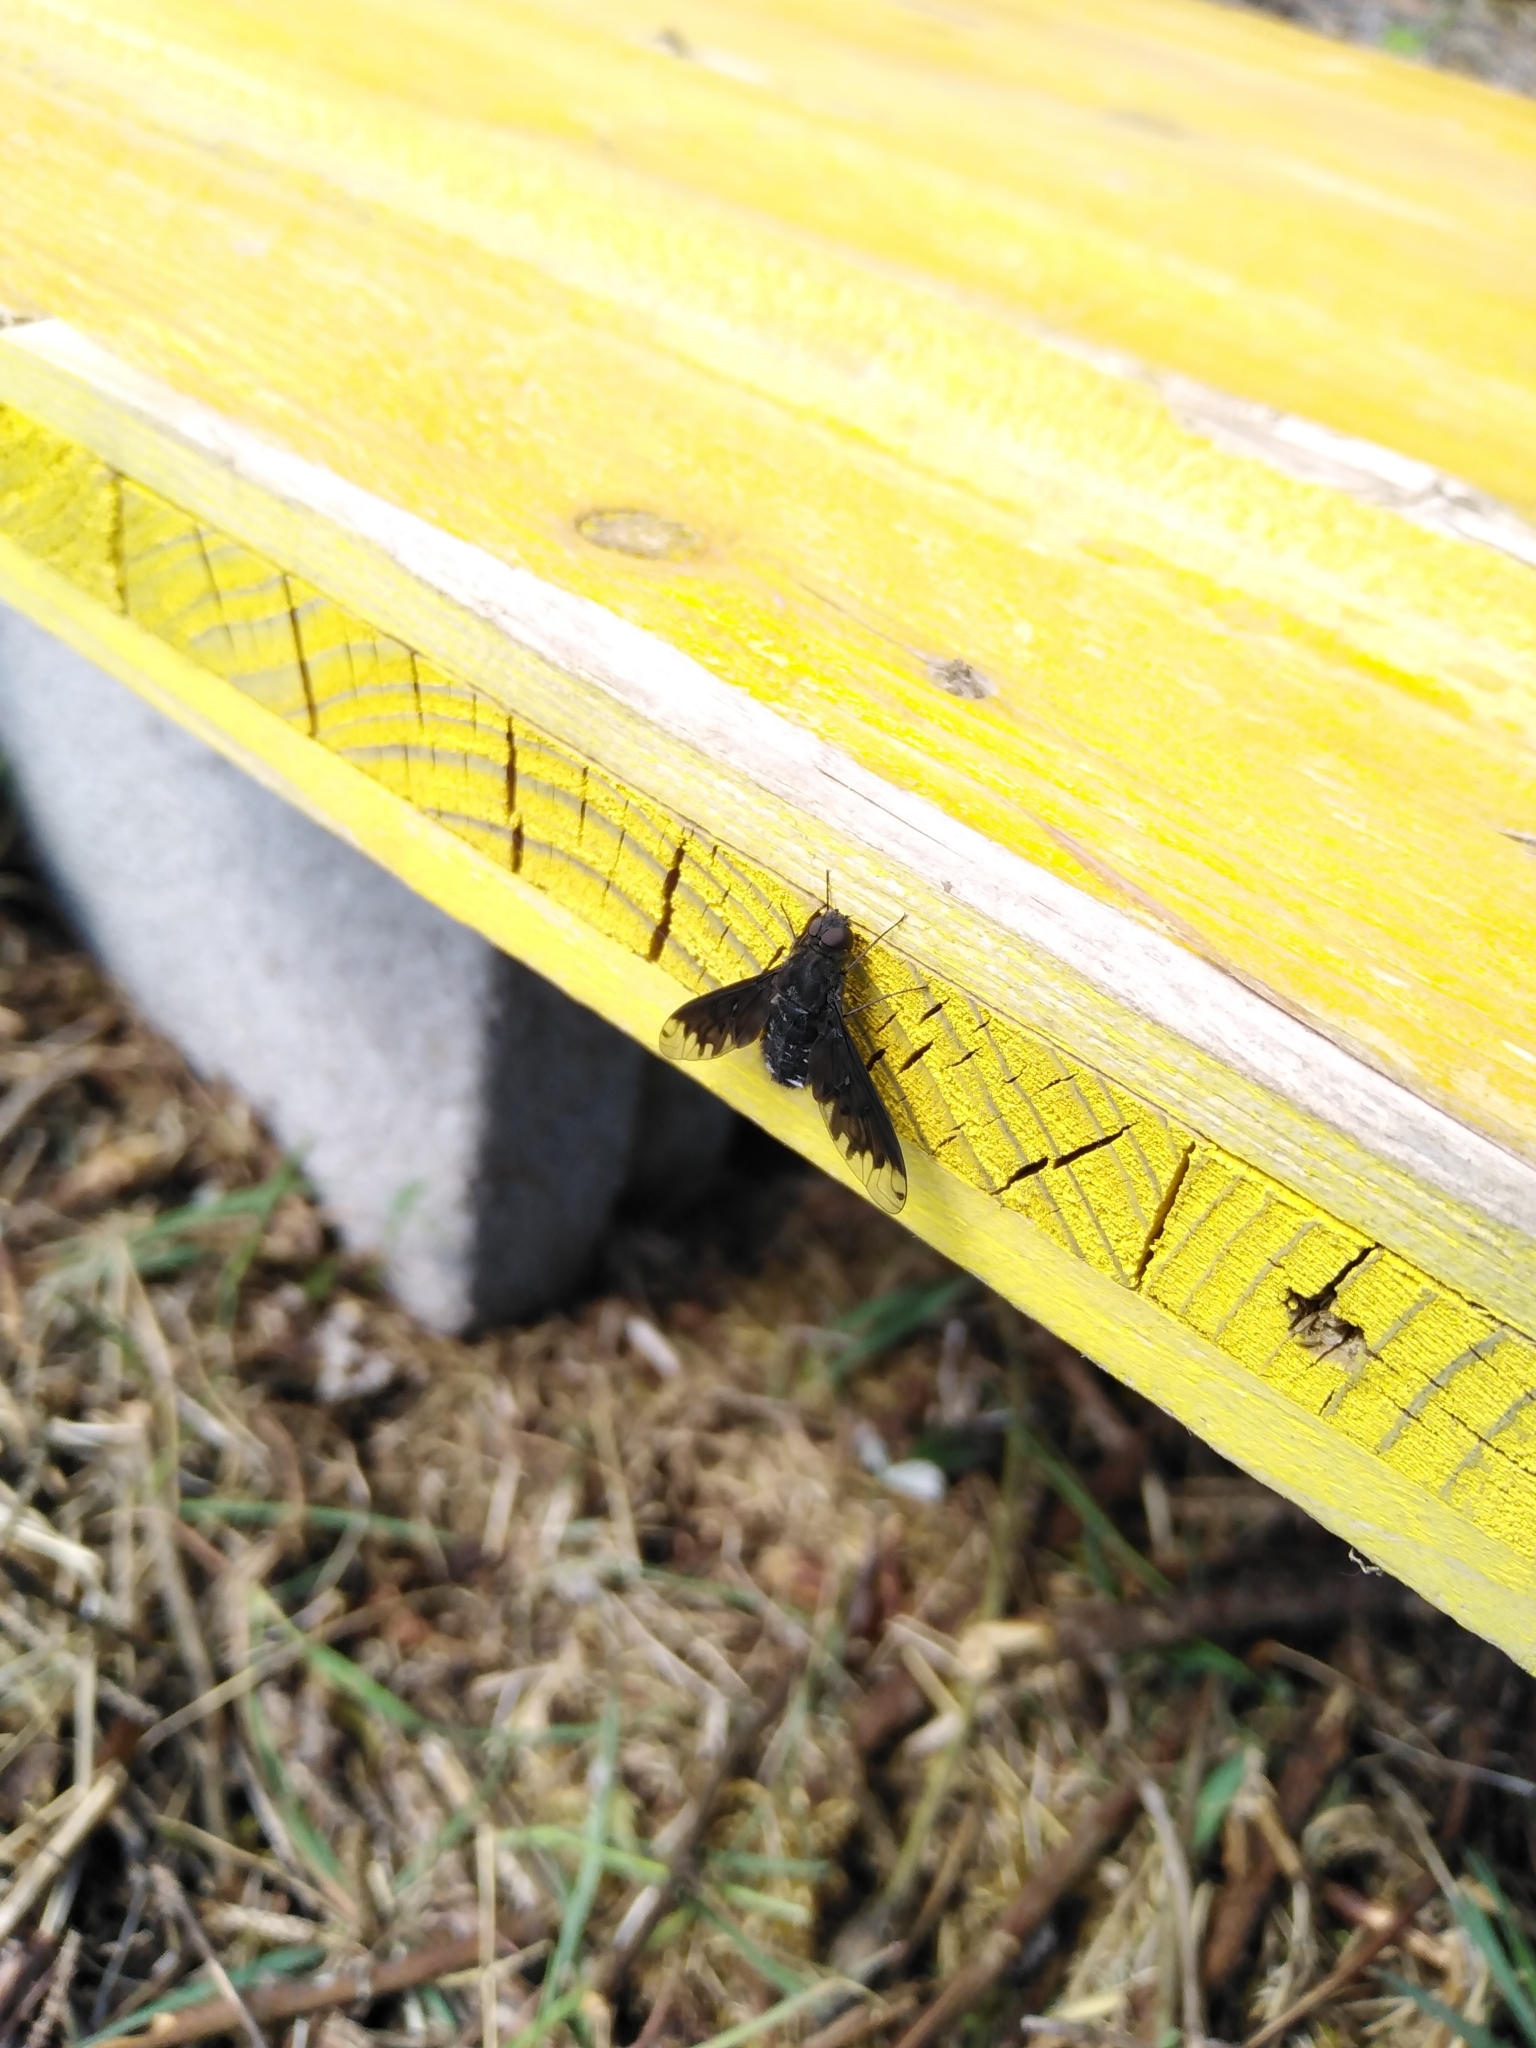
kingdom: Animalia
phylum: Arthropoda
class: Insecta
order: Diptera
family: Bombyliidae
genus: Anthrax
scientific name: Anthrax anthrax
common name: Anthracite bee-fly
